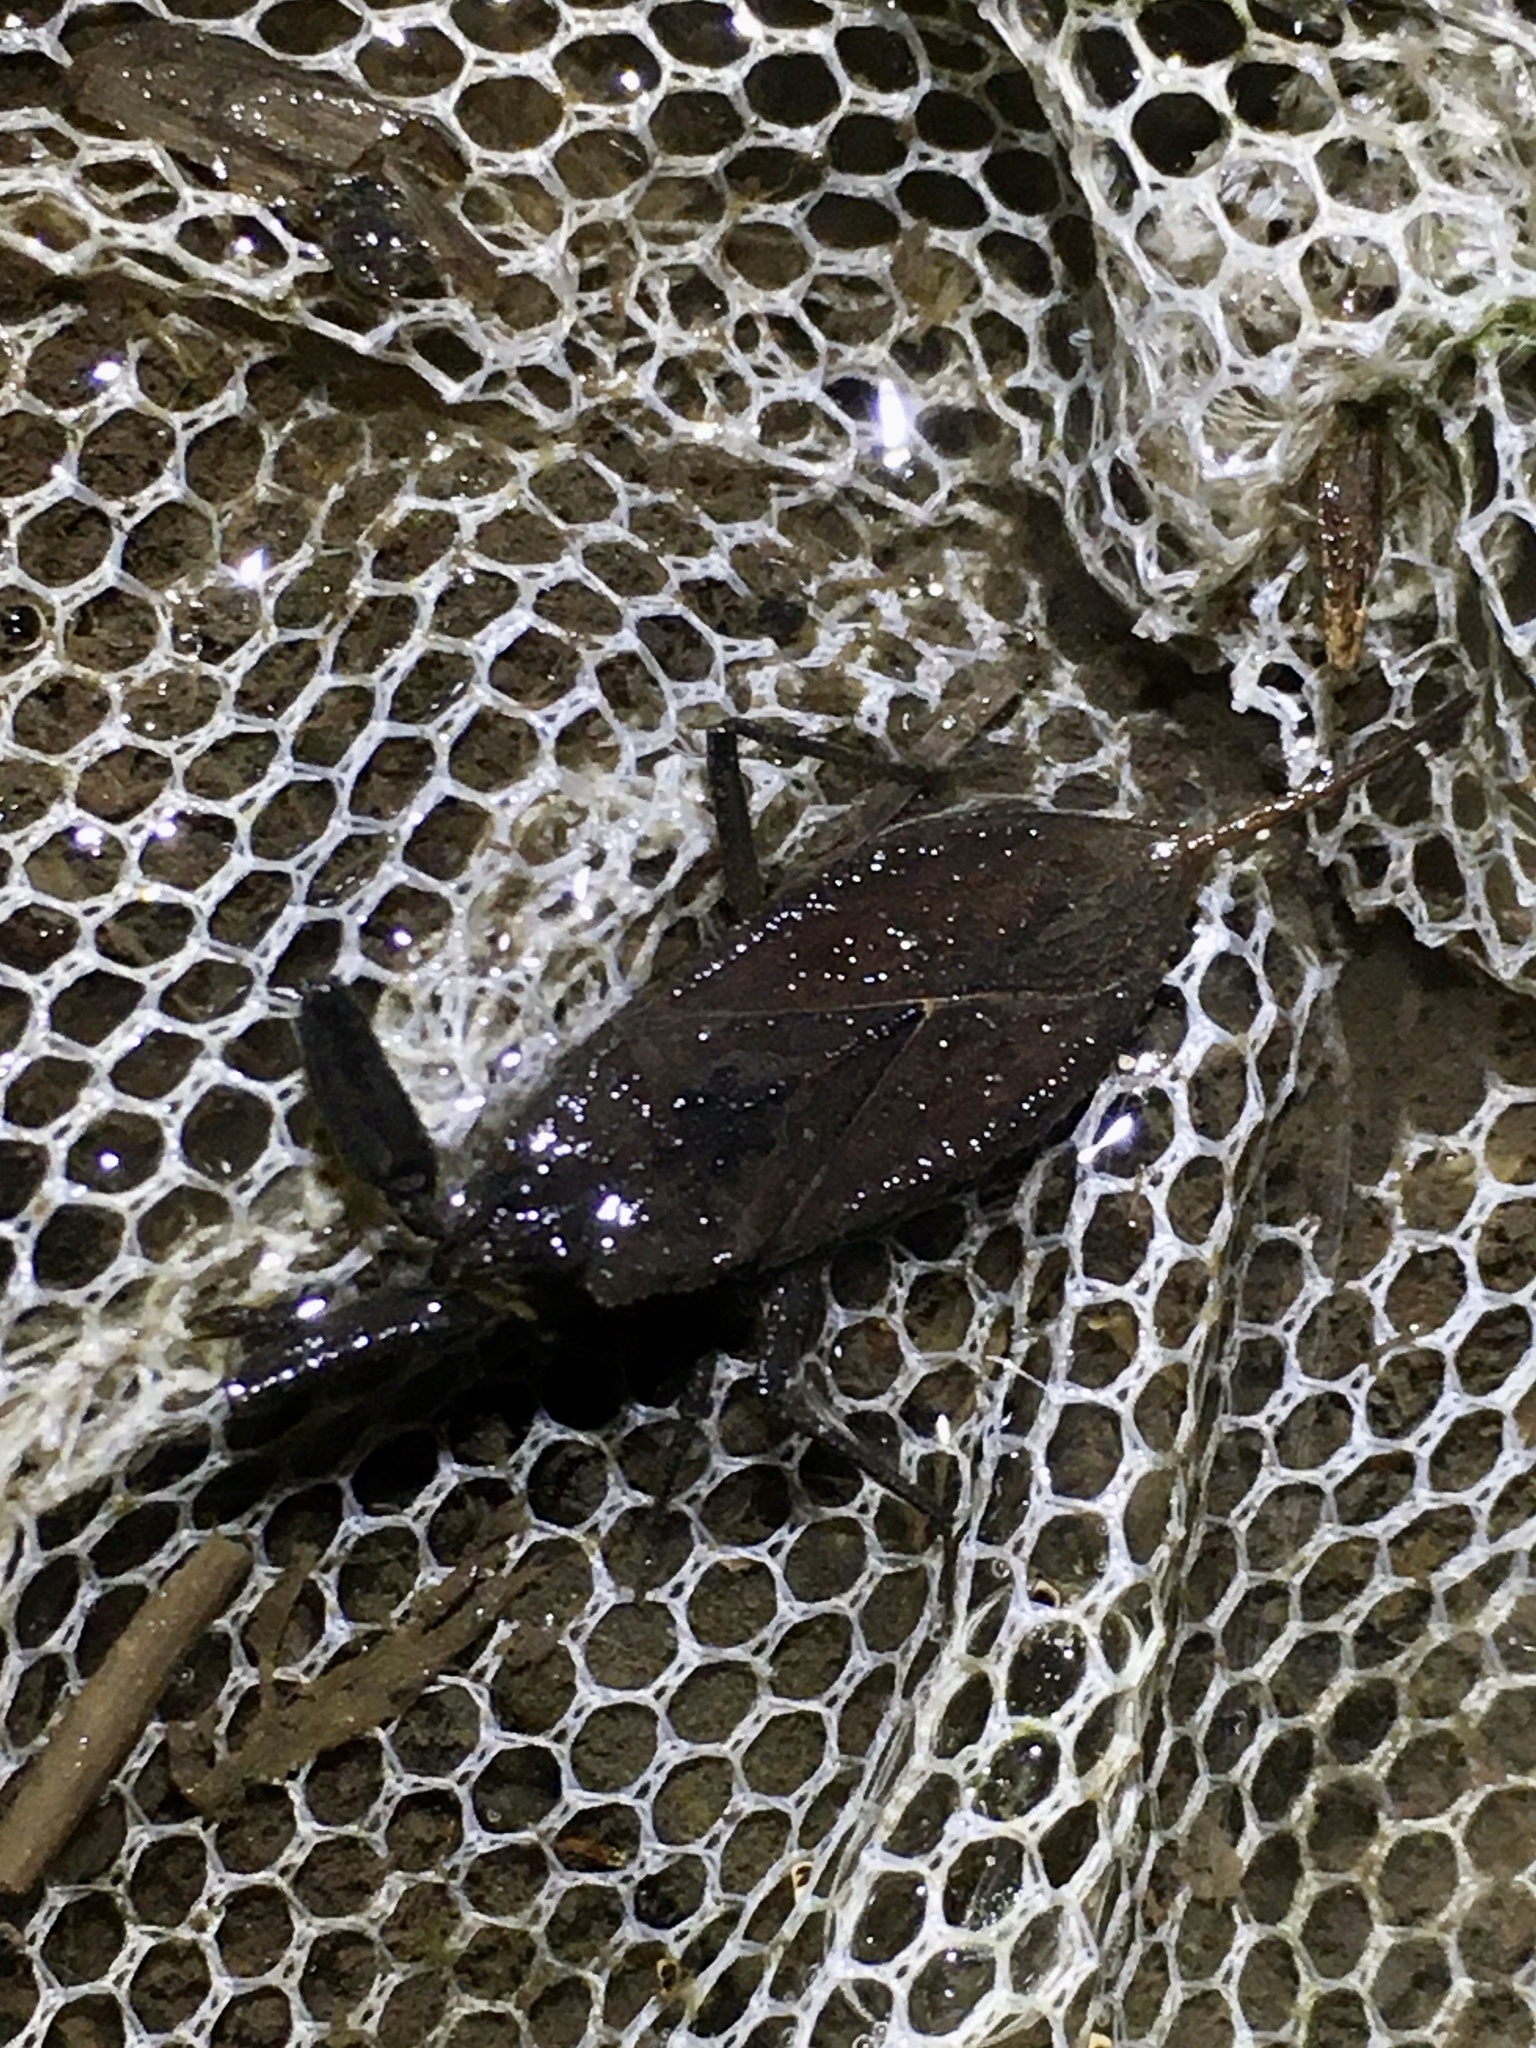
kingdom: Animalia
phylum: Arthropoda
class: Insecta
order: Hemiptera
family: Nepidae
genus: Nepa
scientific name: Nepa apiculata
